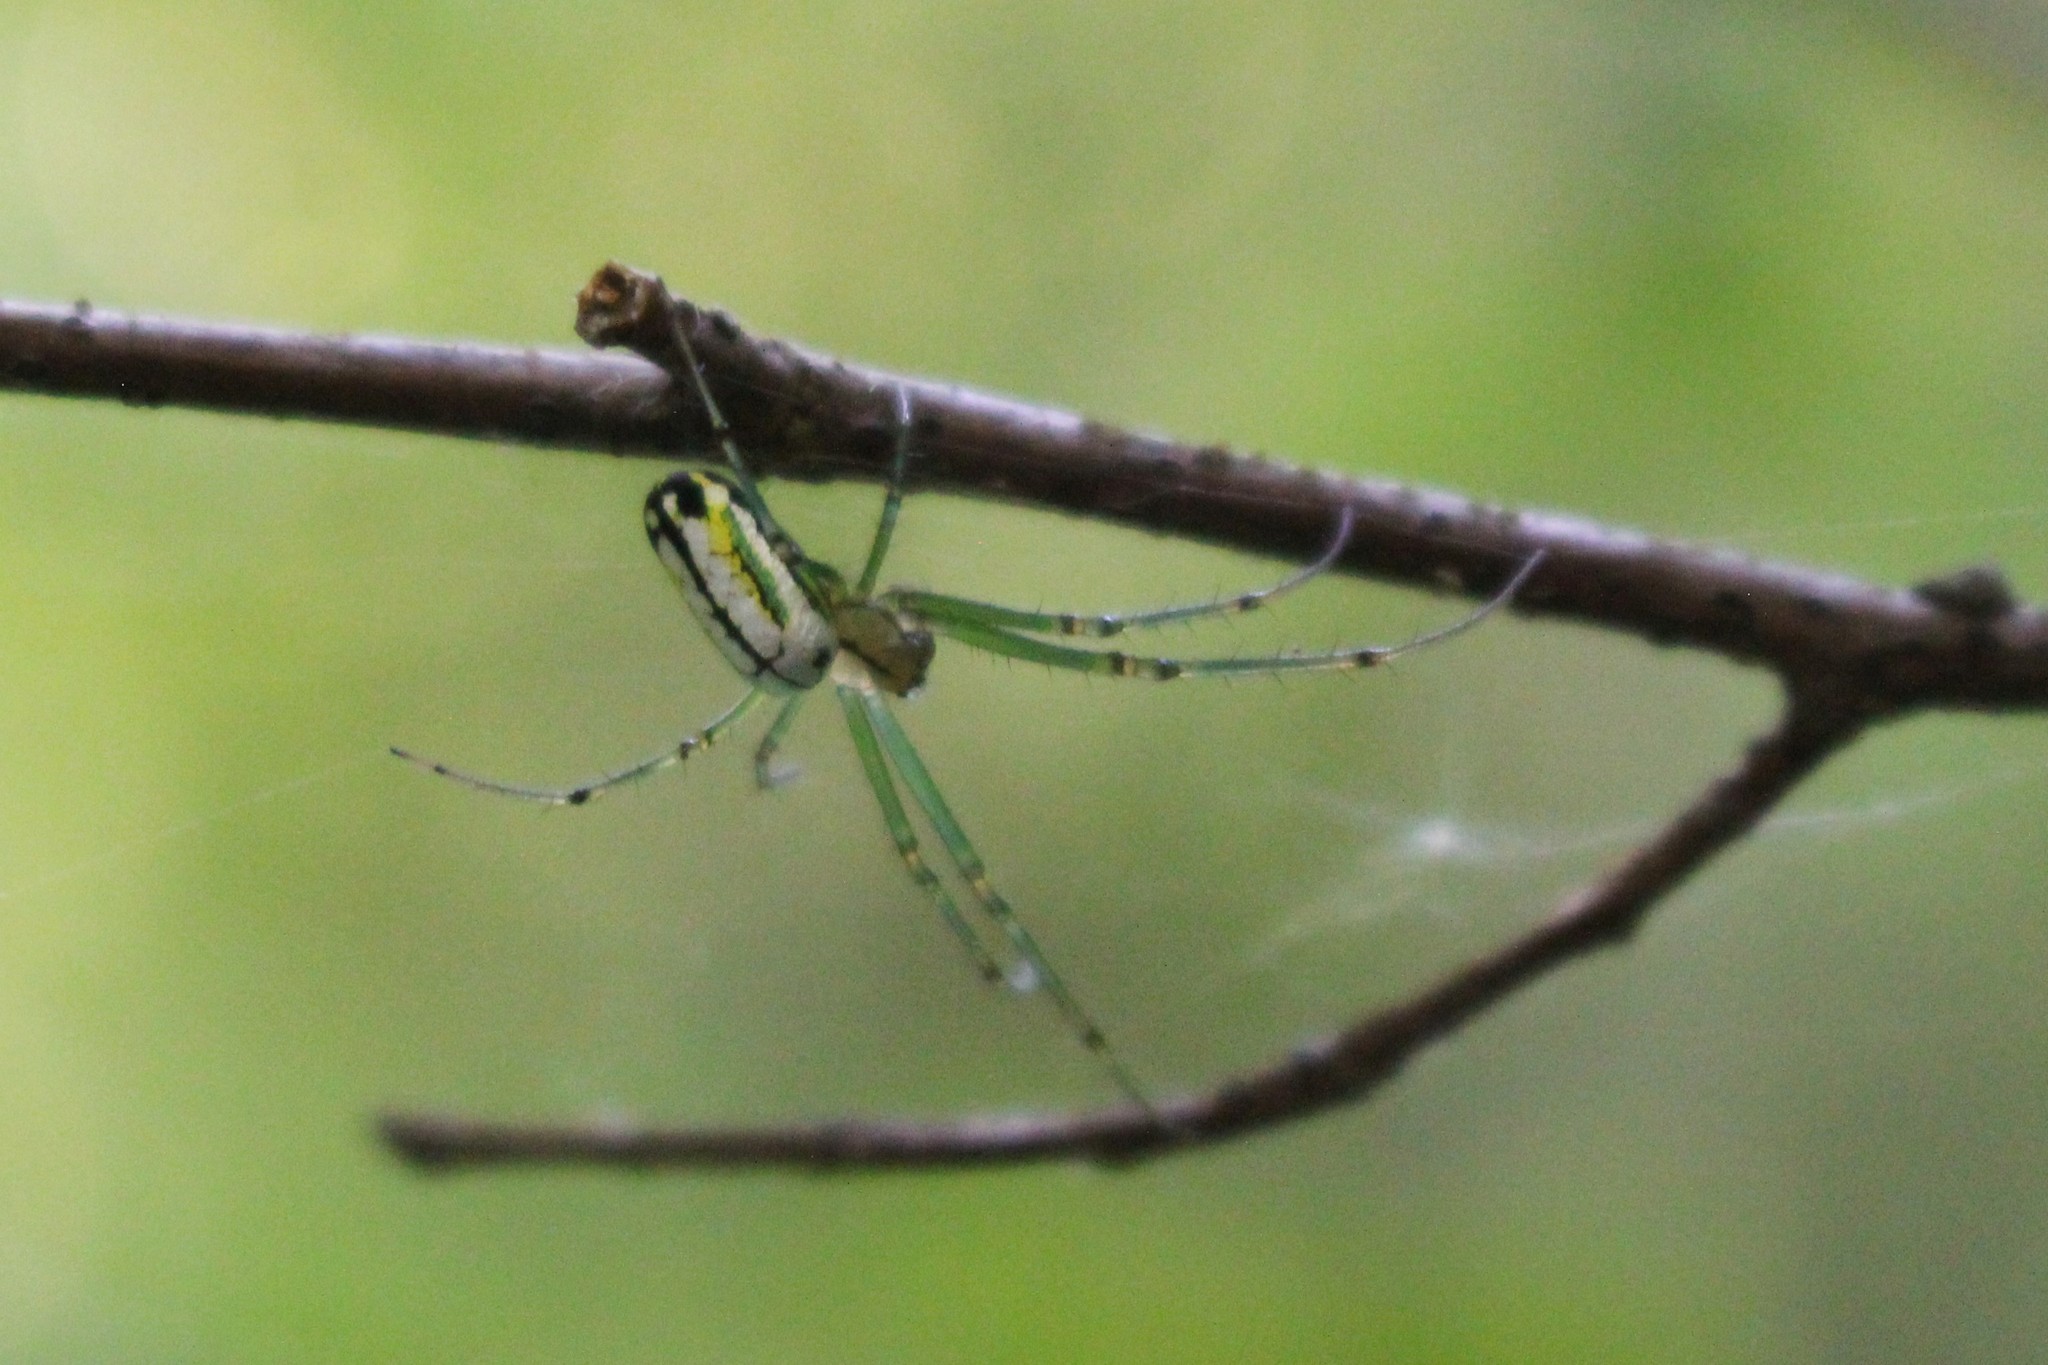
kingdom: Animalia
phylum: Arthropoda
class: Arachnida
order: Araneae
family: Tetragnathidae
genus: Leucauge
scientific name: Leucauge venusta
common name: Longjawed orb weavers
